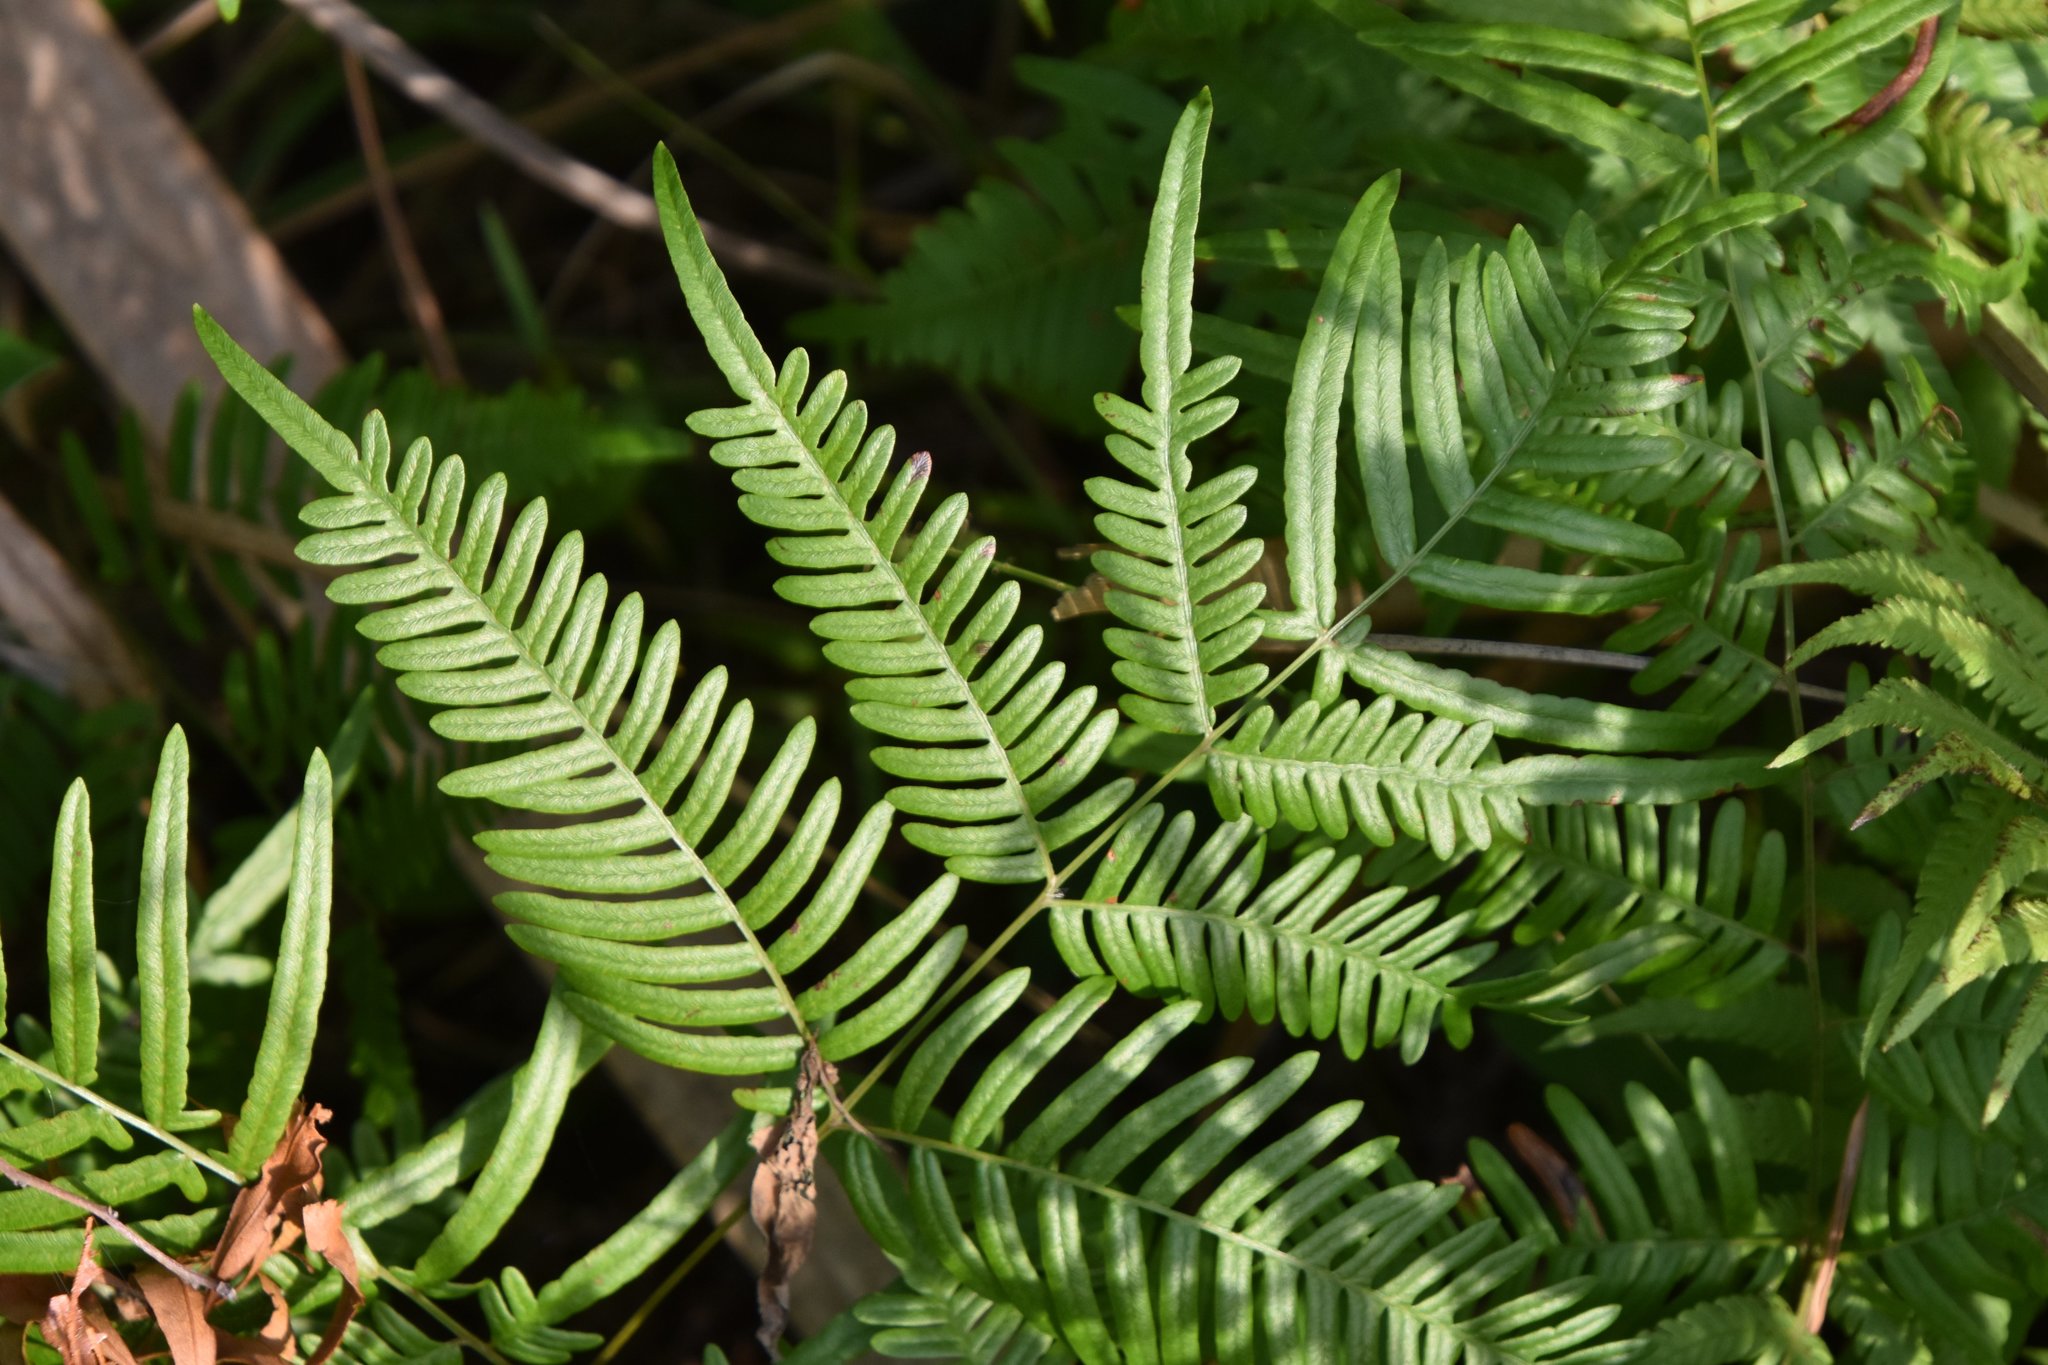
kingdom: Plantae
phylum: Tracheophyta
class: Polypodiopsida
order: Polypodiales
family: Dennstaedtiaceae
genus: Pteridium
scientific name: Pteridium
